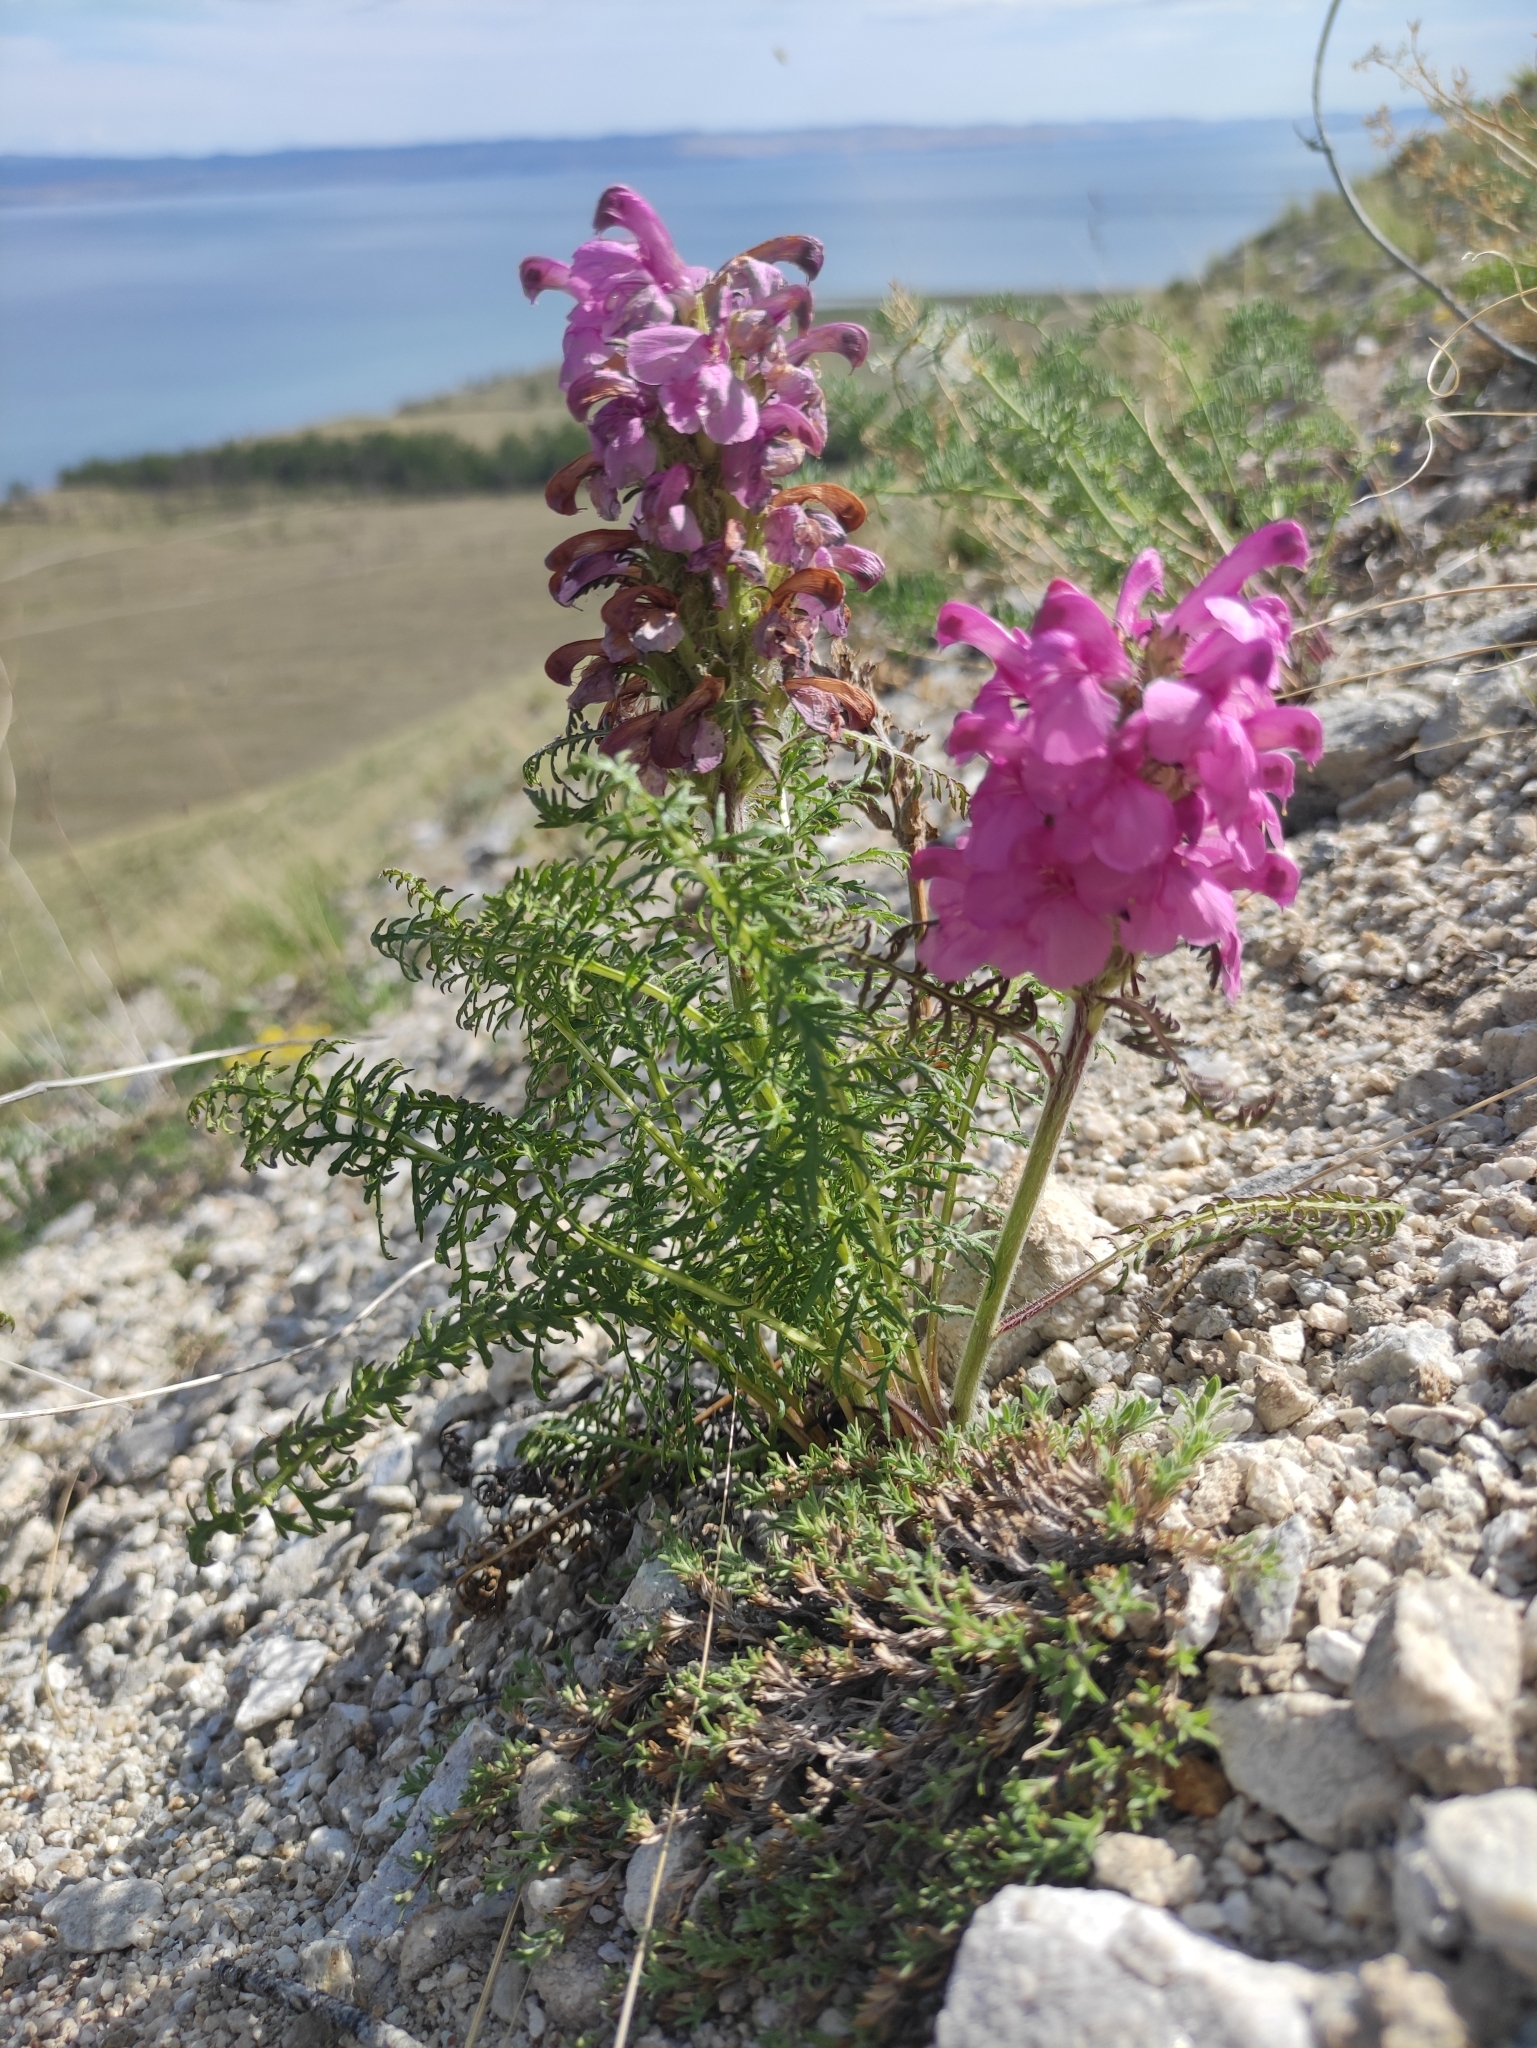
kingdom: Plantae
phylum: Tracheophyta
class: Magnoliopsida
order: Lamiales
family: Orobanchaceae
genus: Pedicularis
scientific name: Pedicularis rubens
